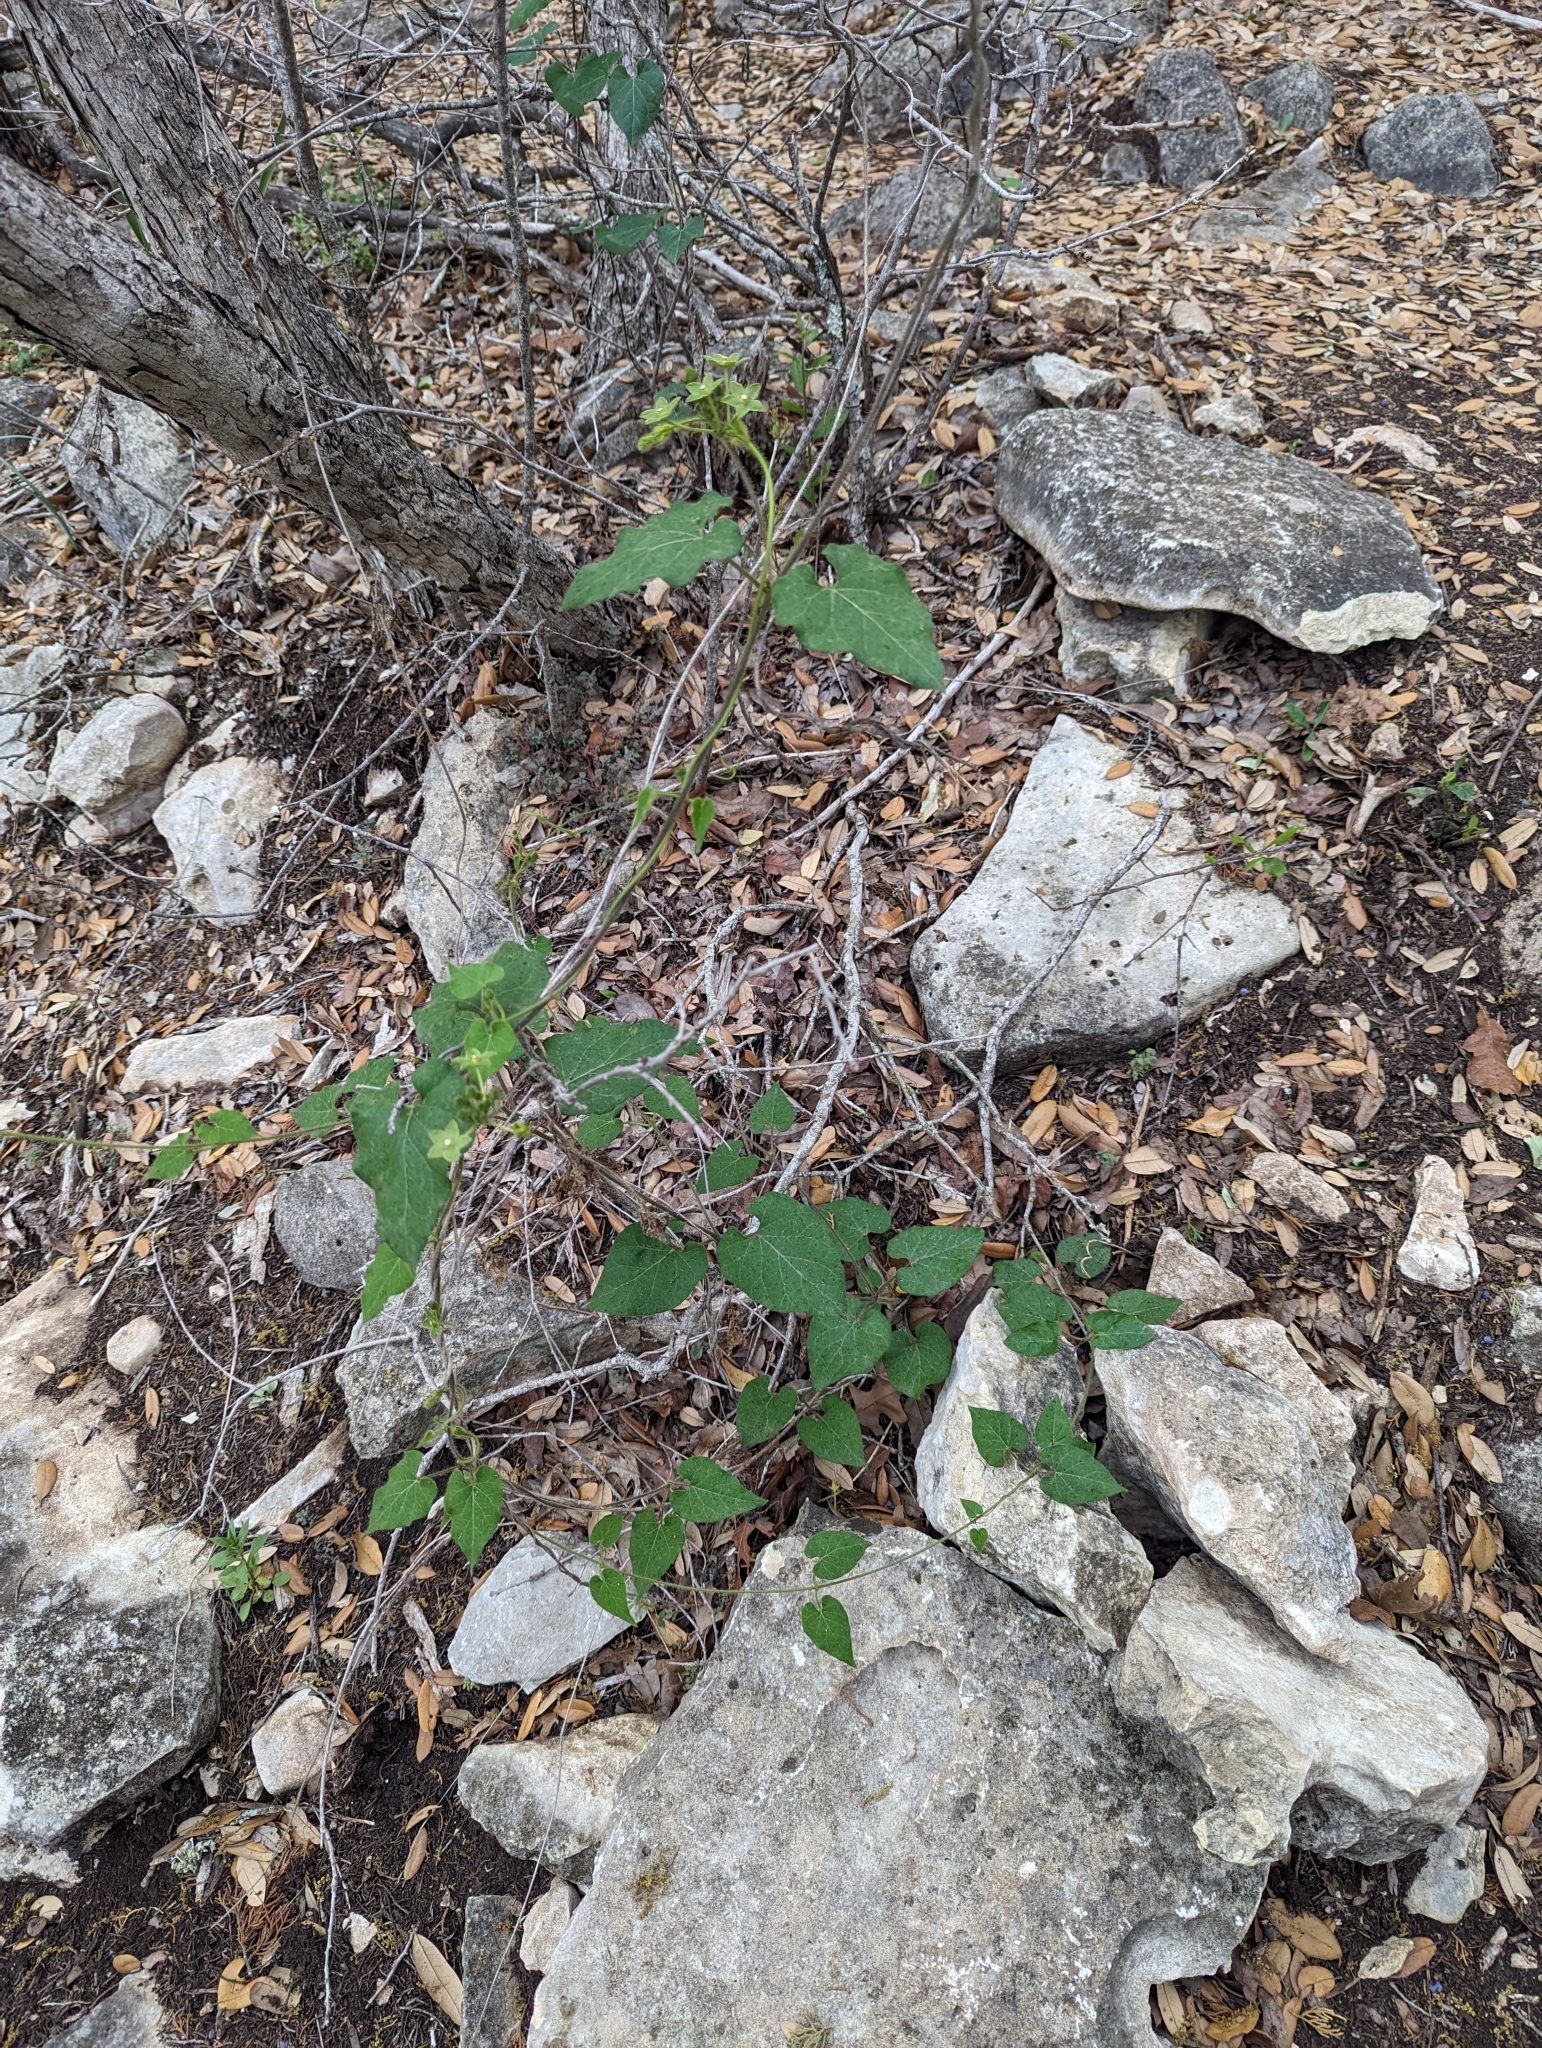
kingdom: Plantae
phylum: Tracheophyta
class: Magnoliopsida
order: Gentianales
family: Apocynaceae
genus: Dictyanthus
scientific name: Dictyanthus reticulatus
